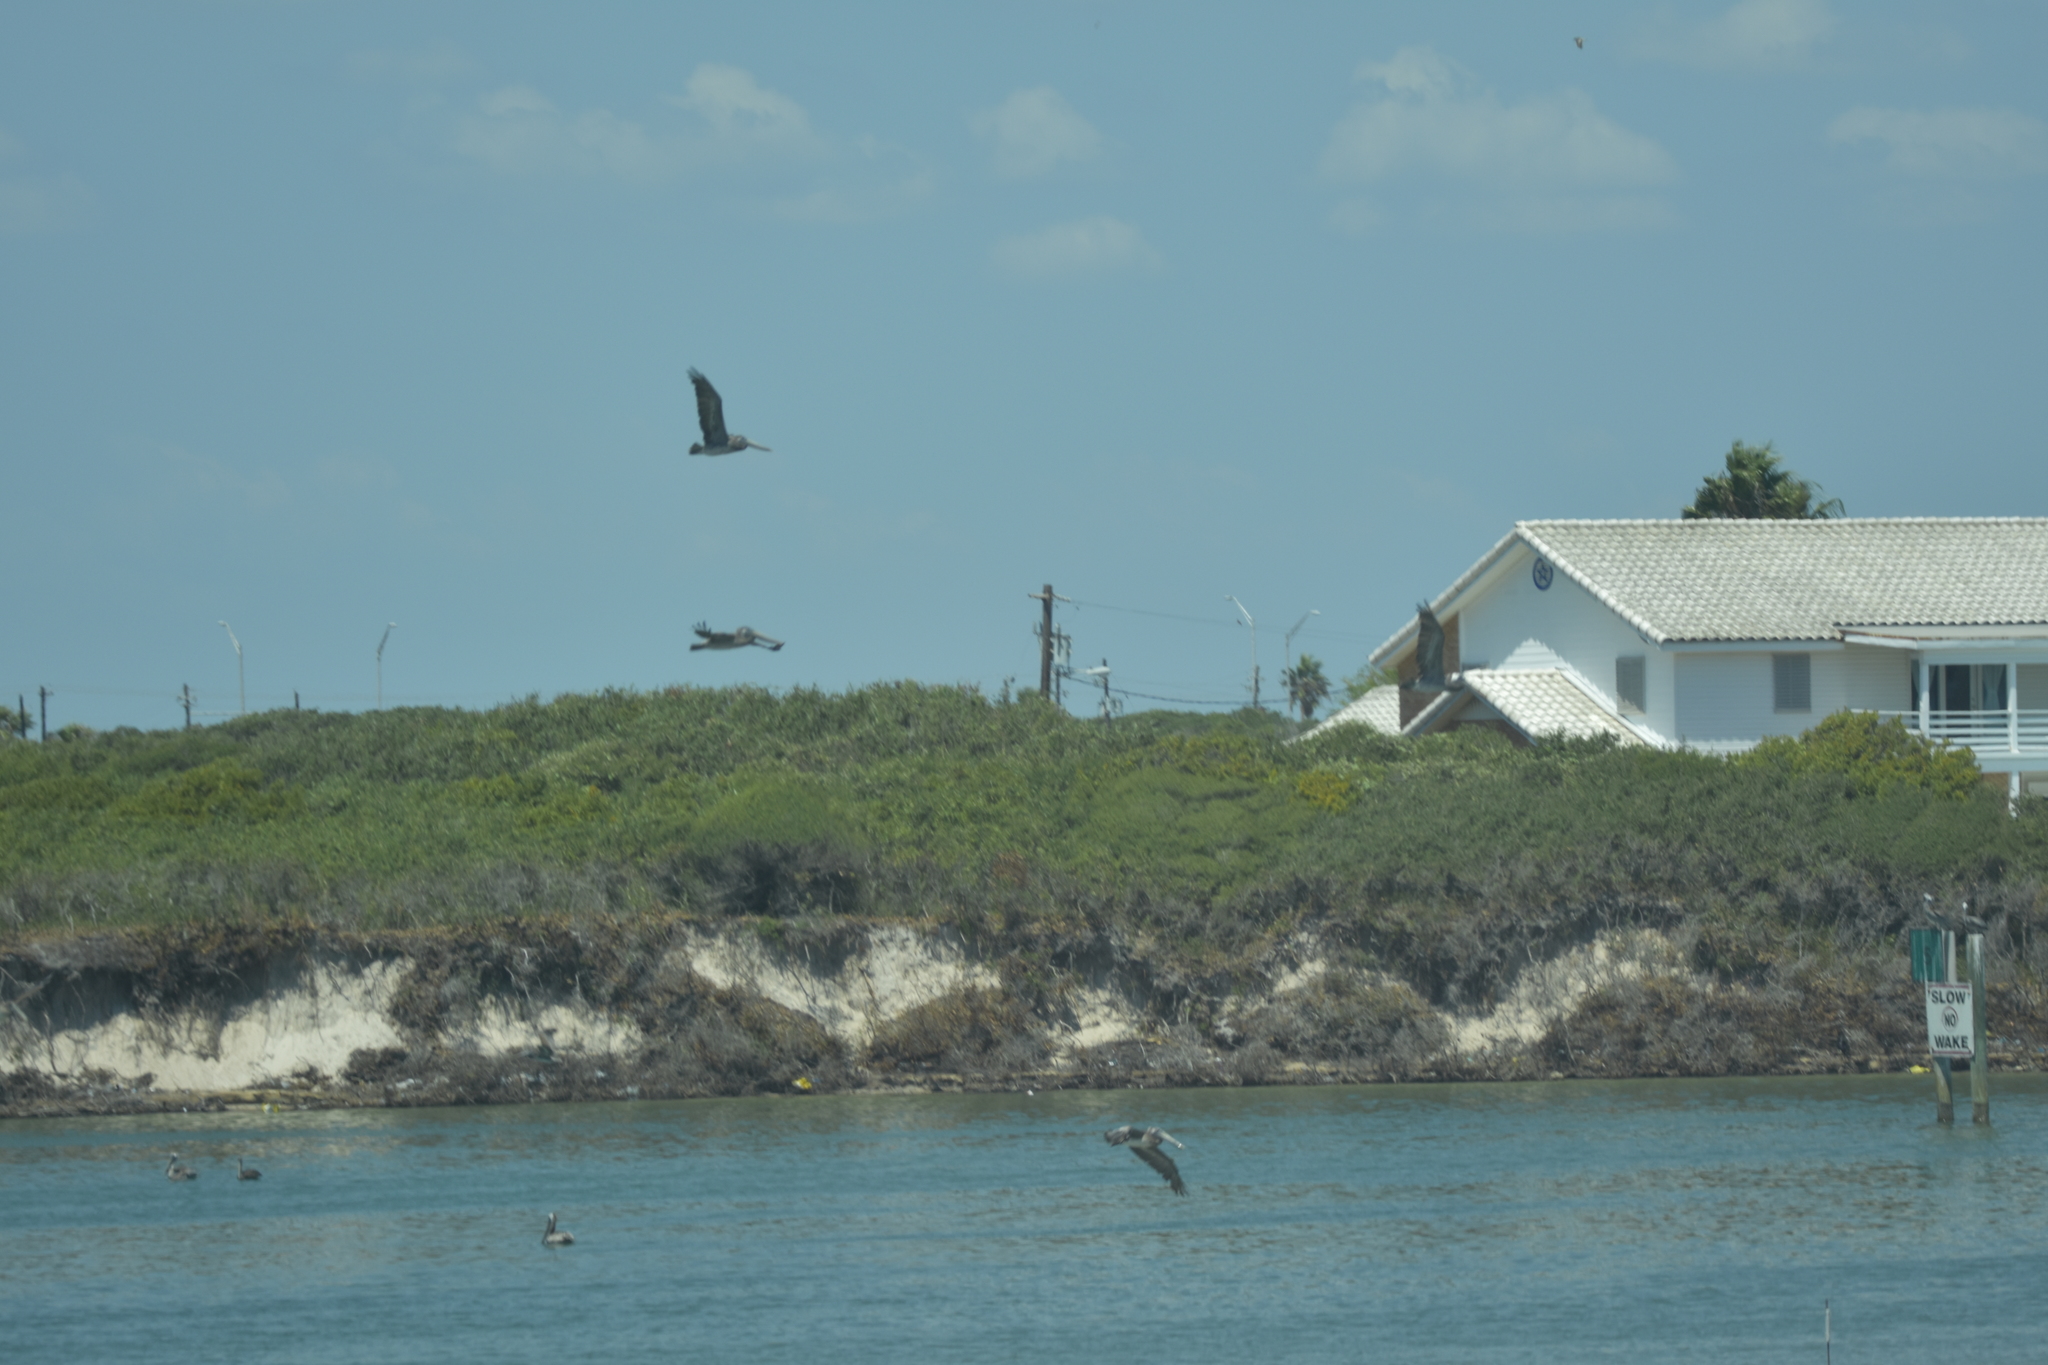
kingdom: Animalia
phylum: Chordata
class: Aves
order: Pelecaniformes
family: Pelecanidae
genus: Pelecanus
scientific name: Pelecanus occidentalis
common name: Brown pelican
